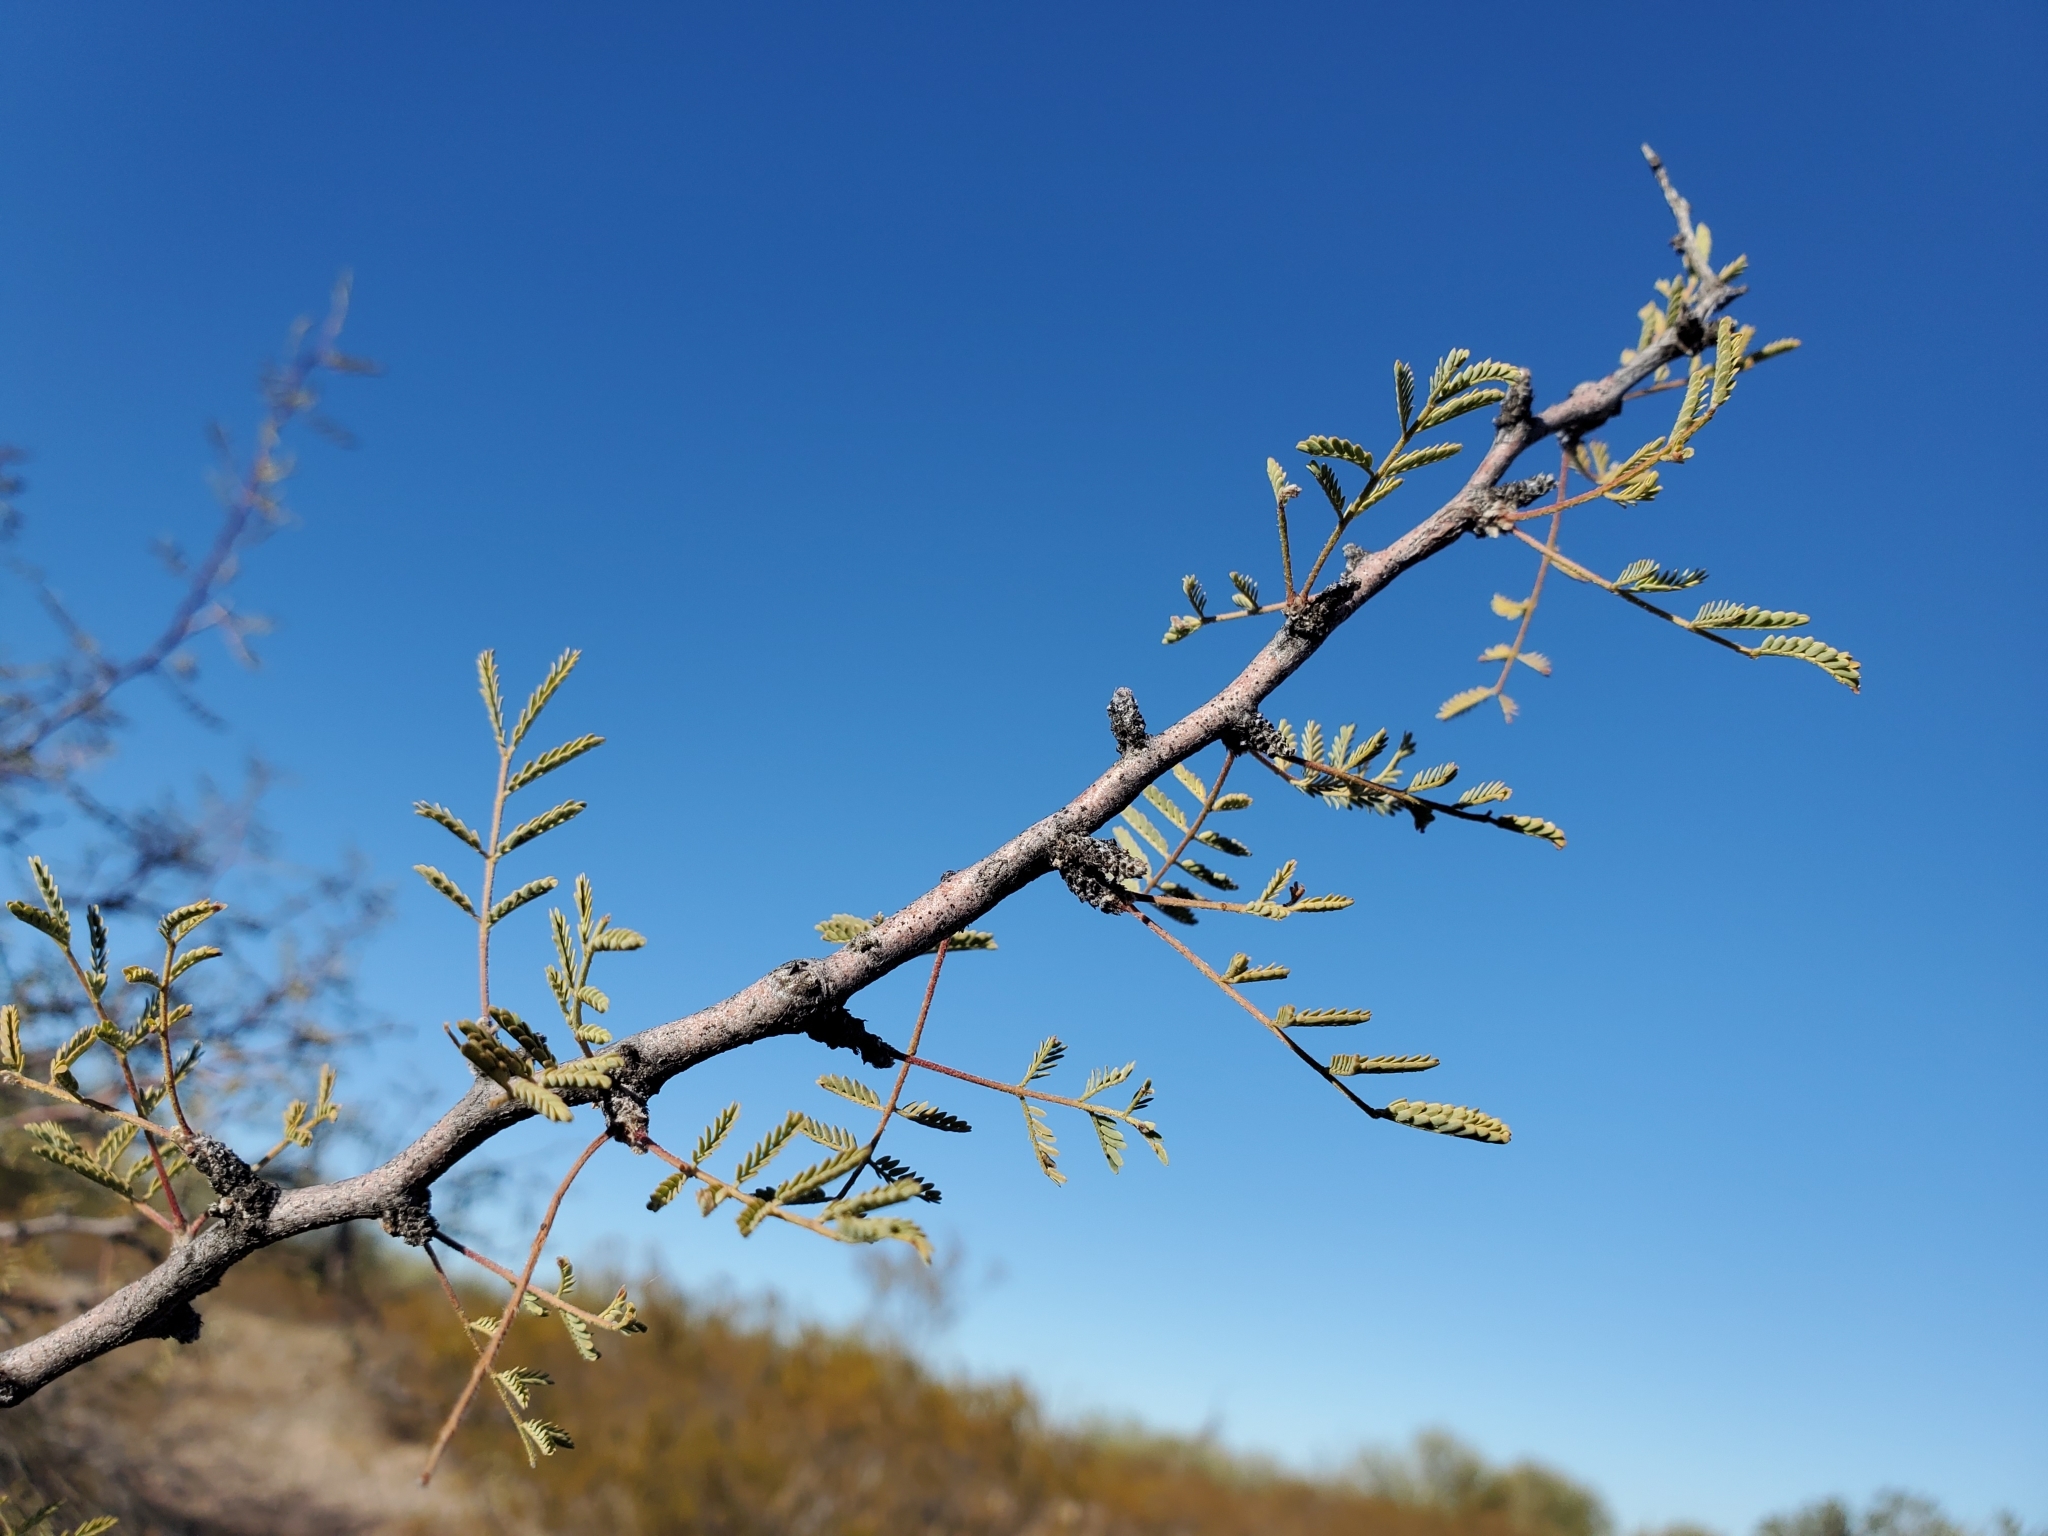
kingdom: Plantae
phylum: Tracheophyta
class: Magnoliopsida
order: Fabales
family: Fabaceae
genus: Vachellia
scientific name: Vachellia constricta
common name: Mescat acacia
